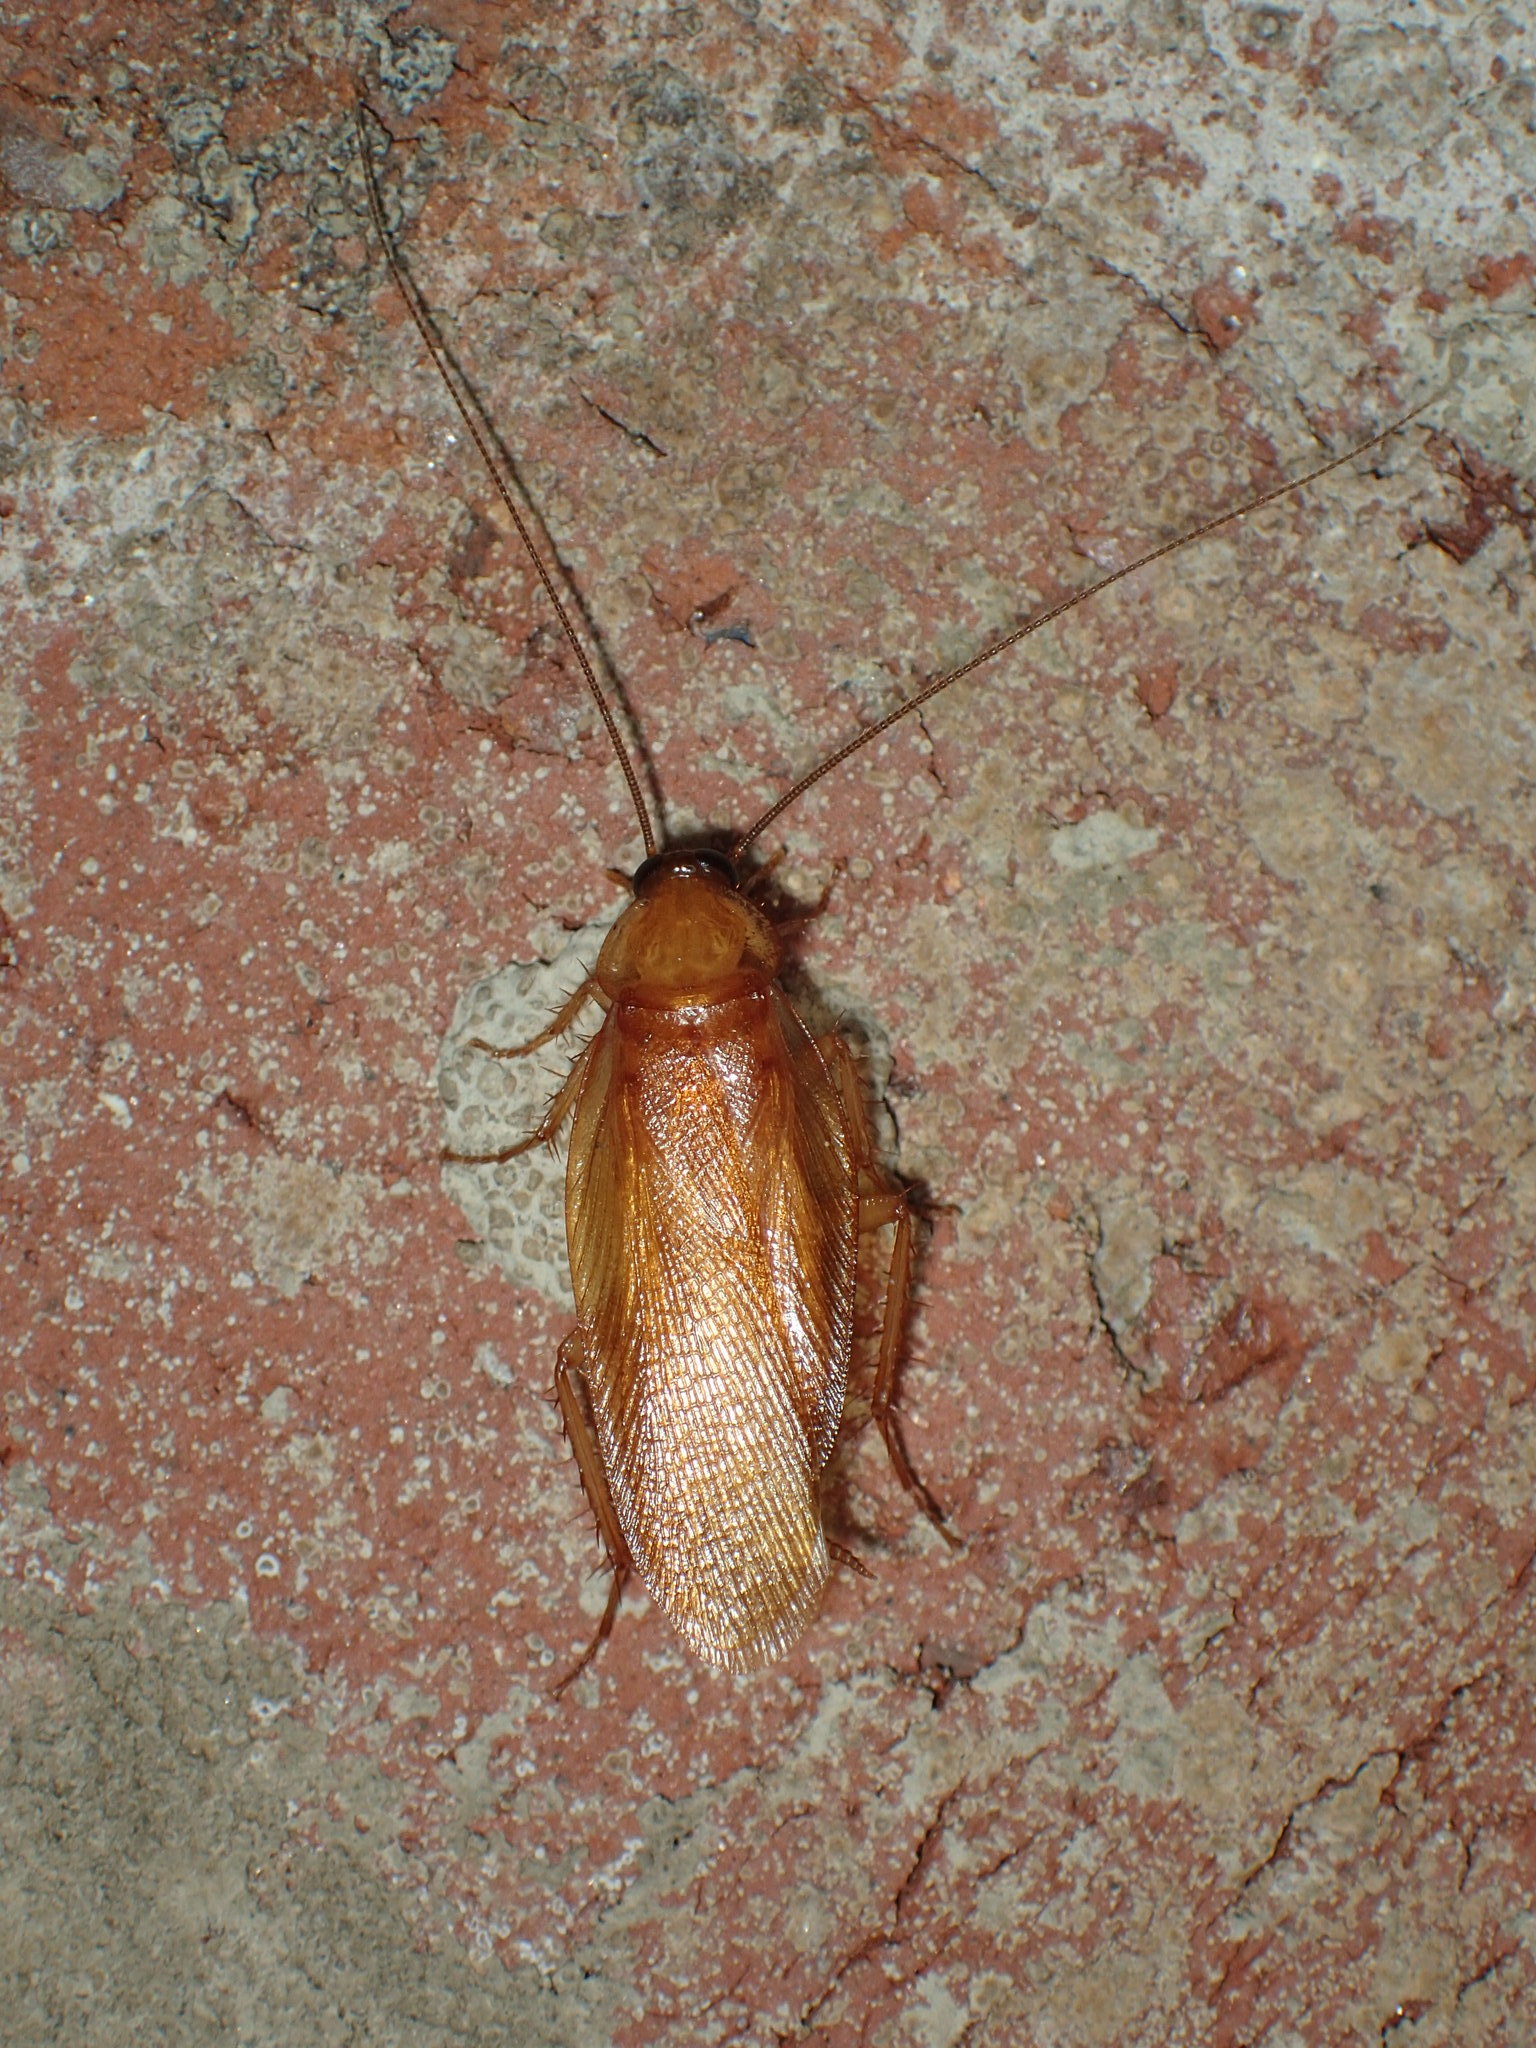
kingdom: Animalia
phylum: Arthropoda
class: Insecta
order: Blattodea
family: Ectobiidae
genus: Parcoblatta
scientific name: Parcoblatta virginica
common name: Virginia wood cockroach
